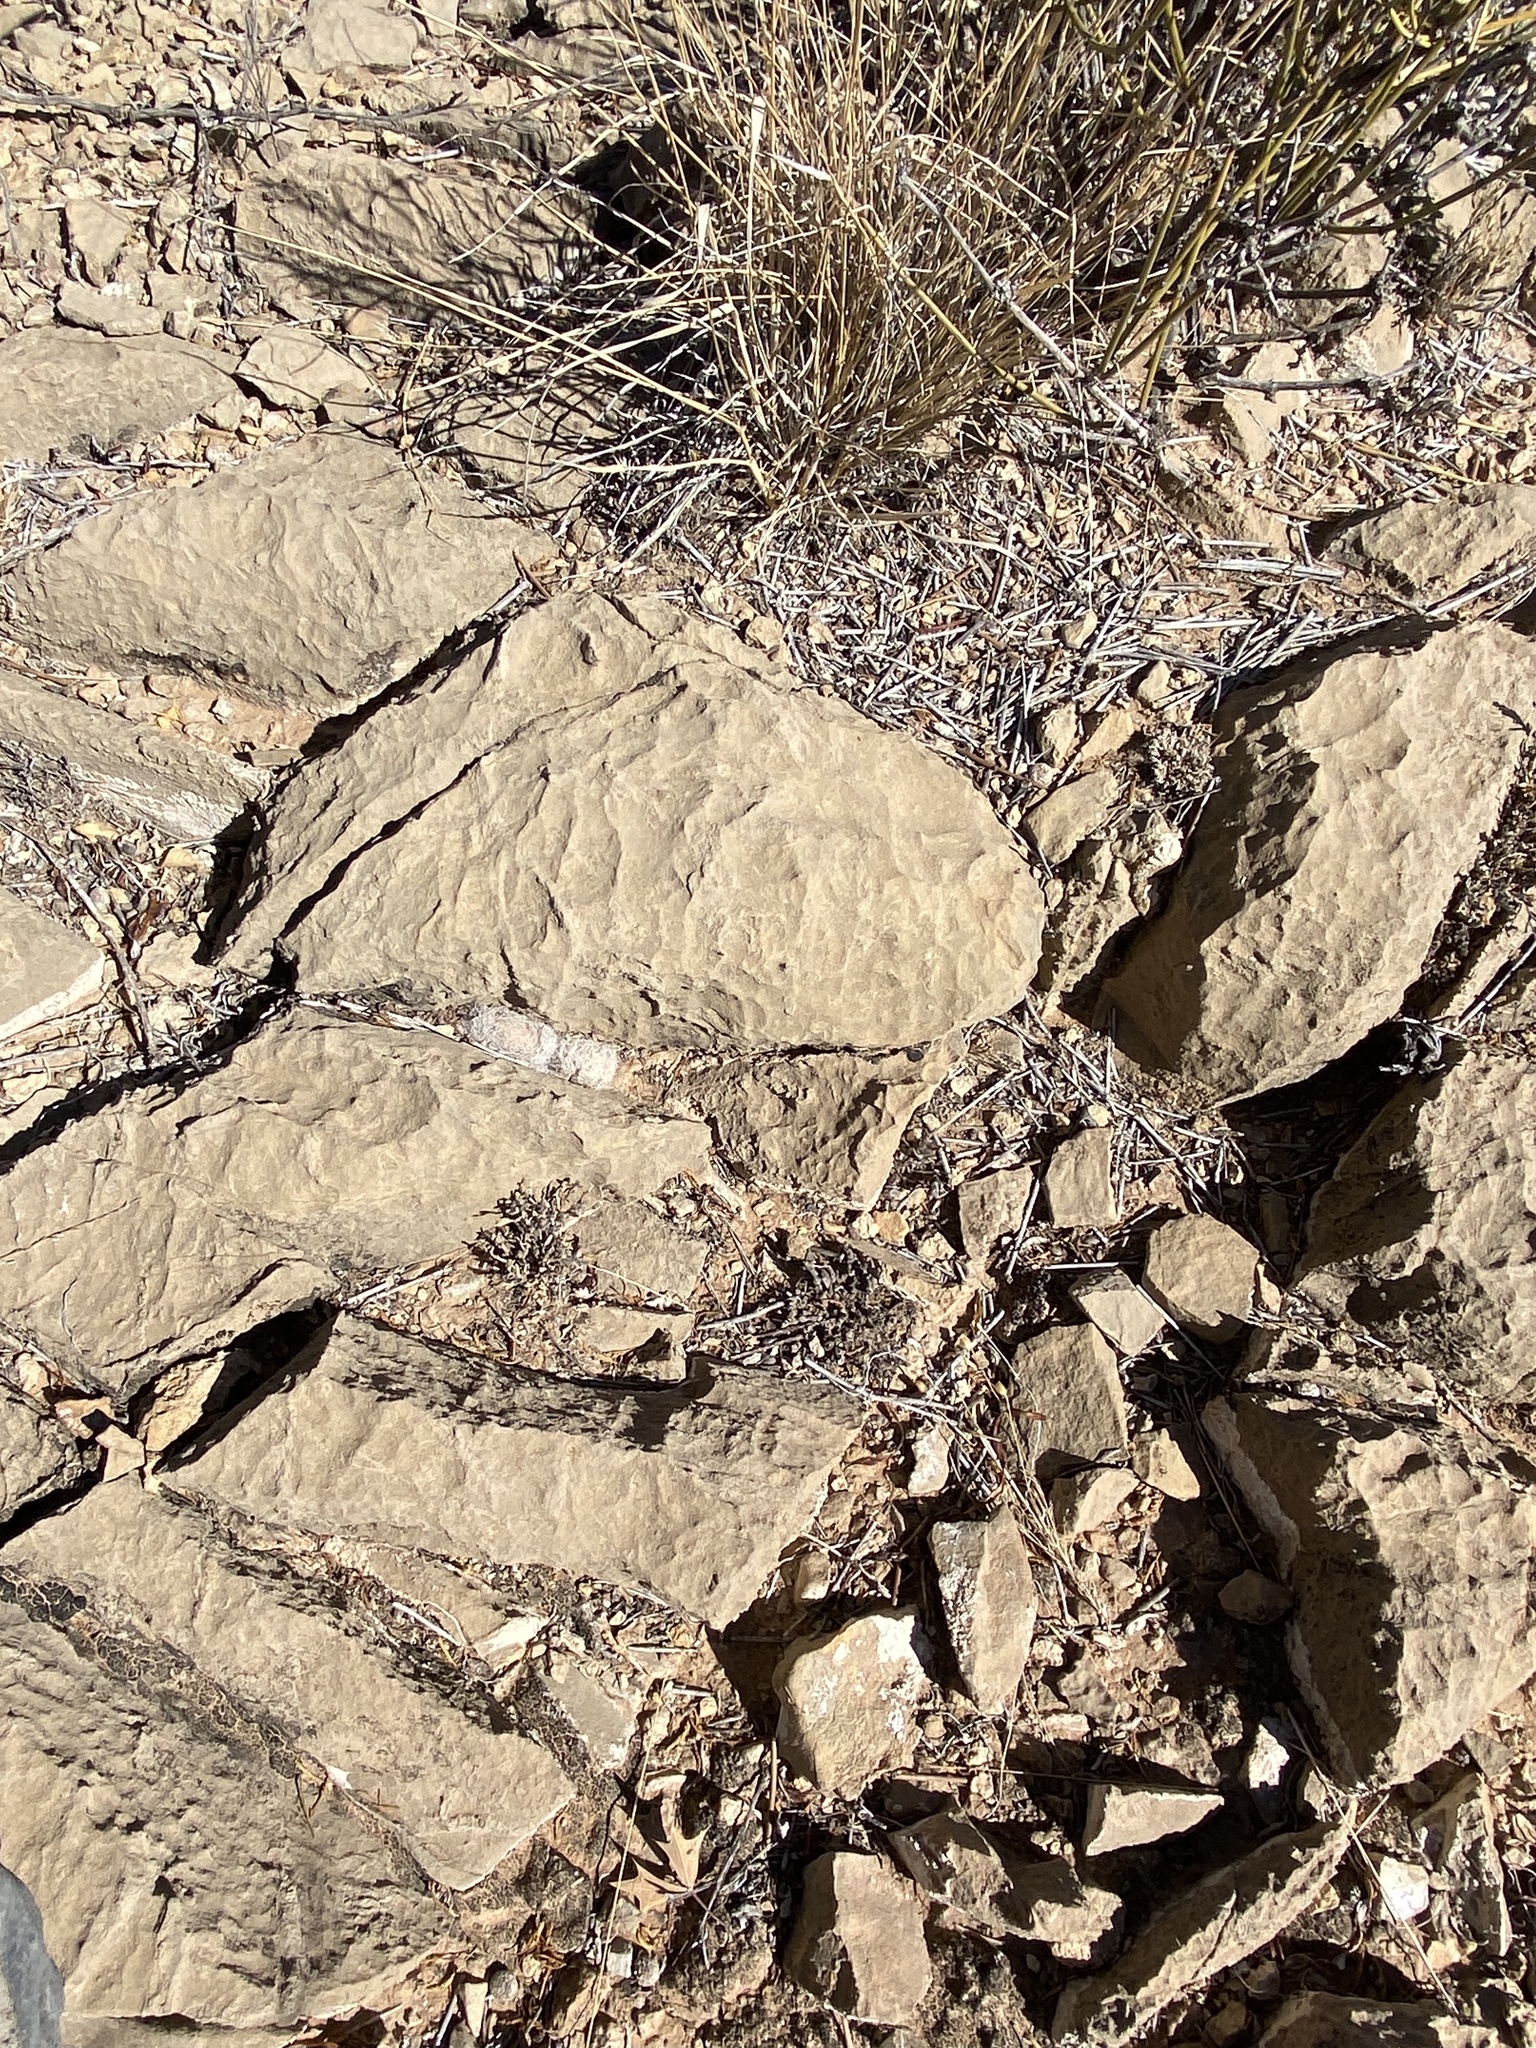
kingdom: Plantae
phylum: Tracheophyta
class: Magnoliopsida
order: Caryophyllales
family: Cactaceae
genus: Mammillaria
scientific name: Mammillaria lasiacantha
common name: Lace-spine nipple cactus
